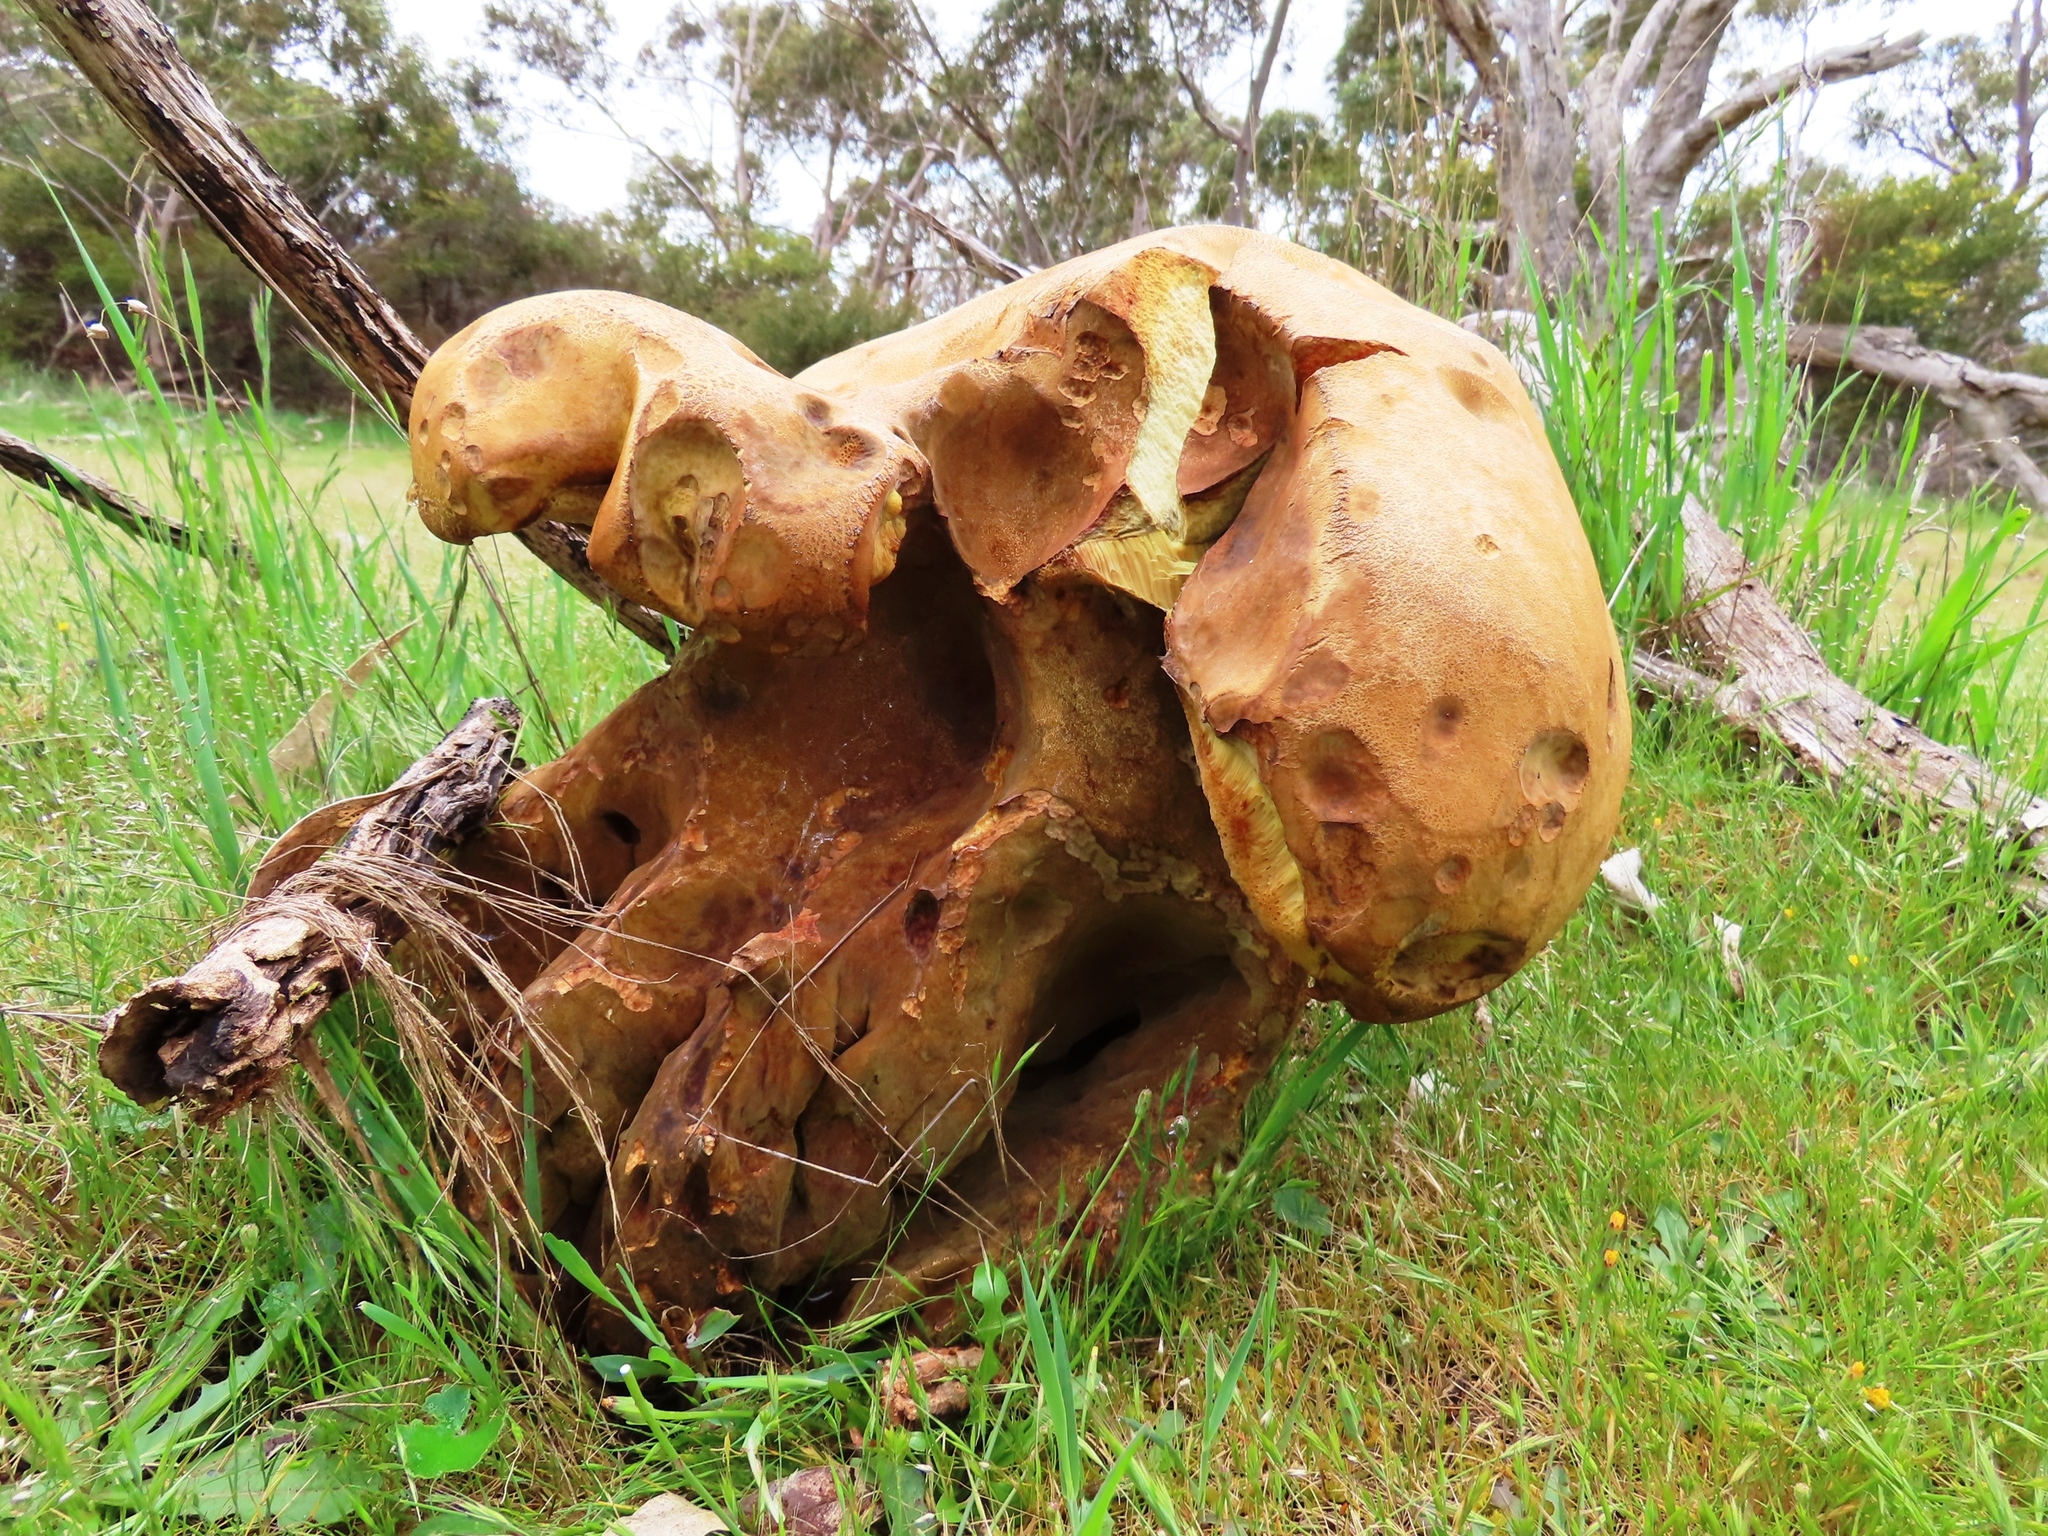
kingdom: Fungi
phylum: Basidiomycota
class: Agaricomycetes
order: Boletales
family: Boletinellaceae
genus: Phlebopus
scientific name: Phlebopus marginatus
